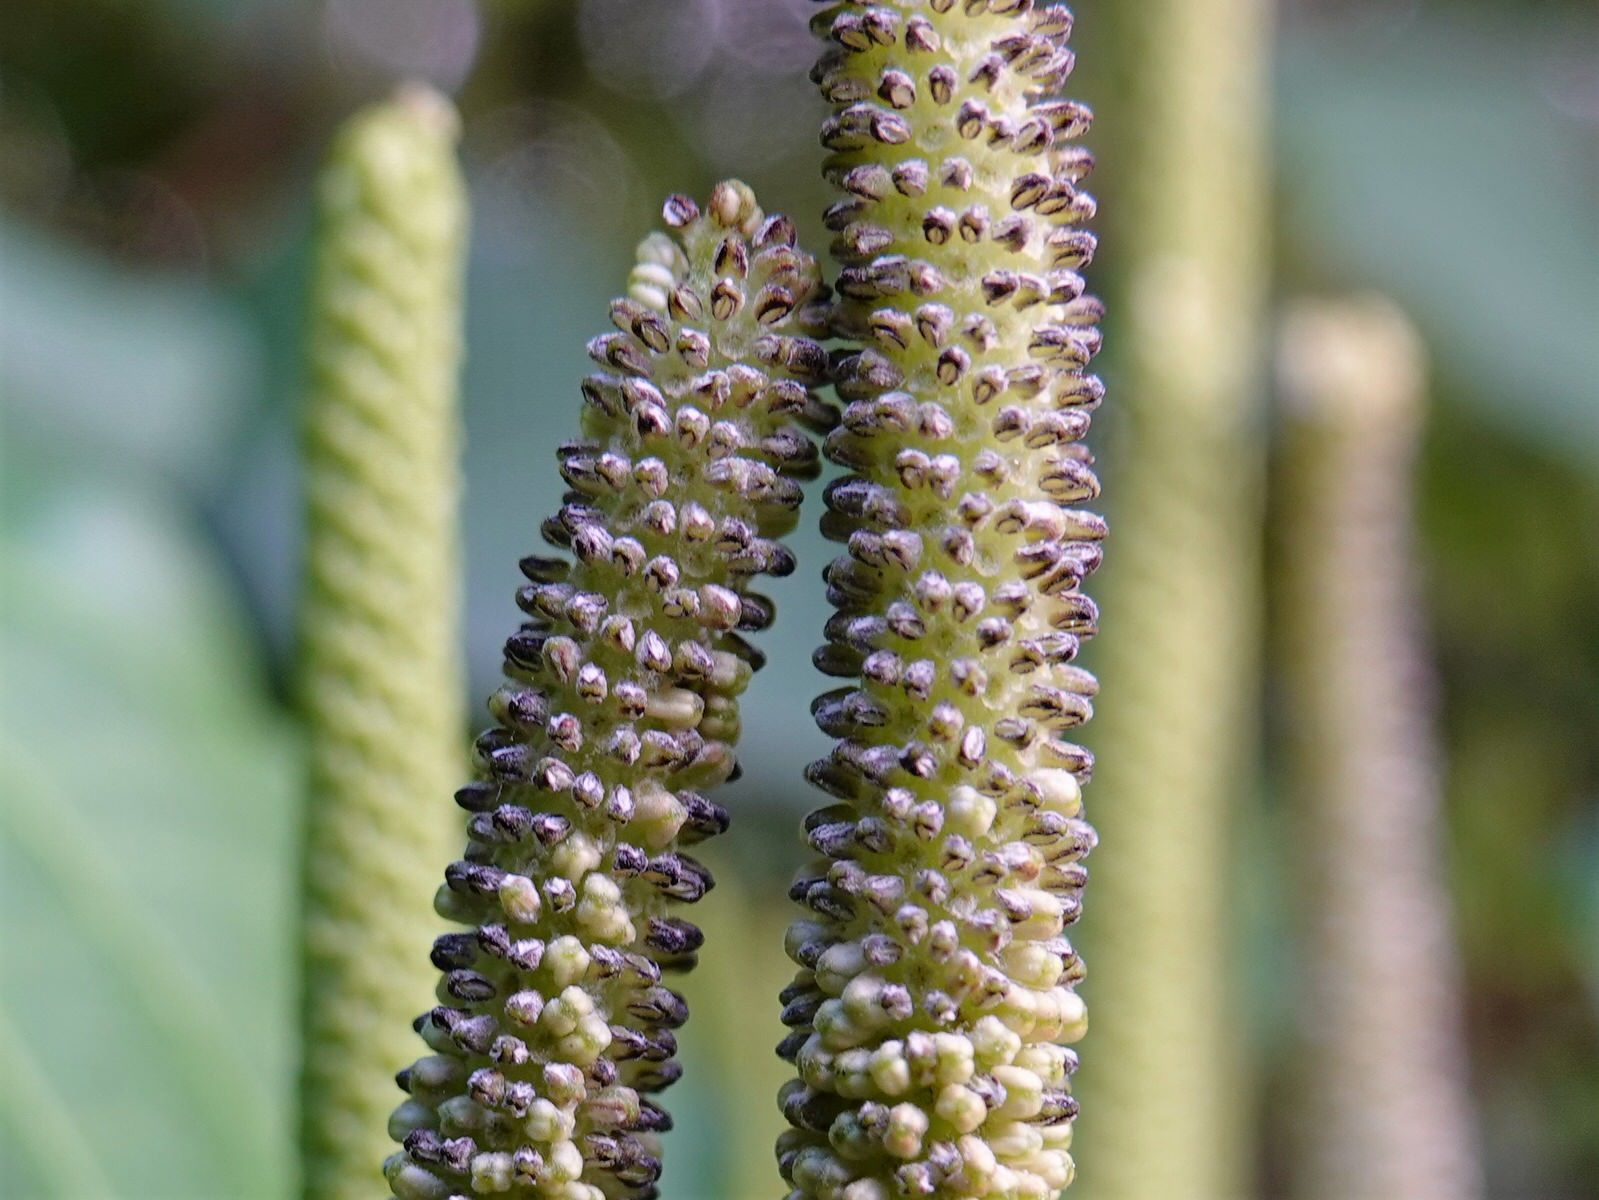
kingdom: Plantae
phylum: Tracheophyta
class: Magnoliopsida
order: Piperales
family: Piperaceae
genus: Macropiper
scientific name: Macropiper excelsum
